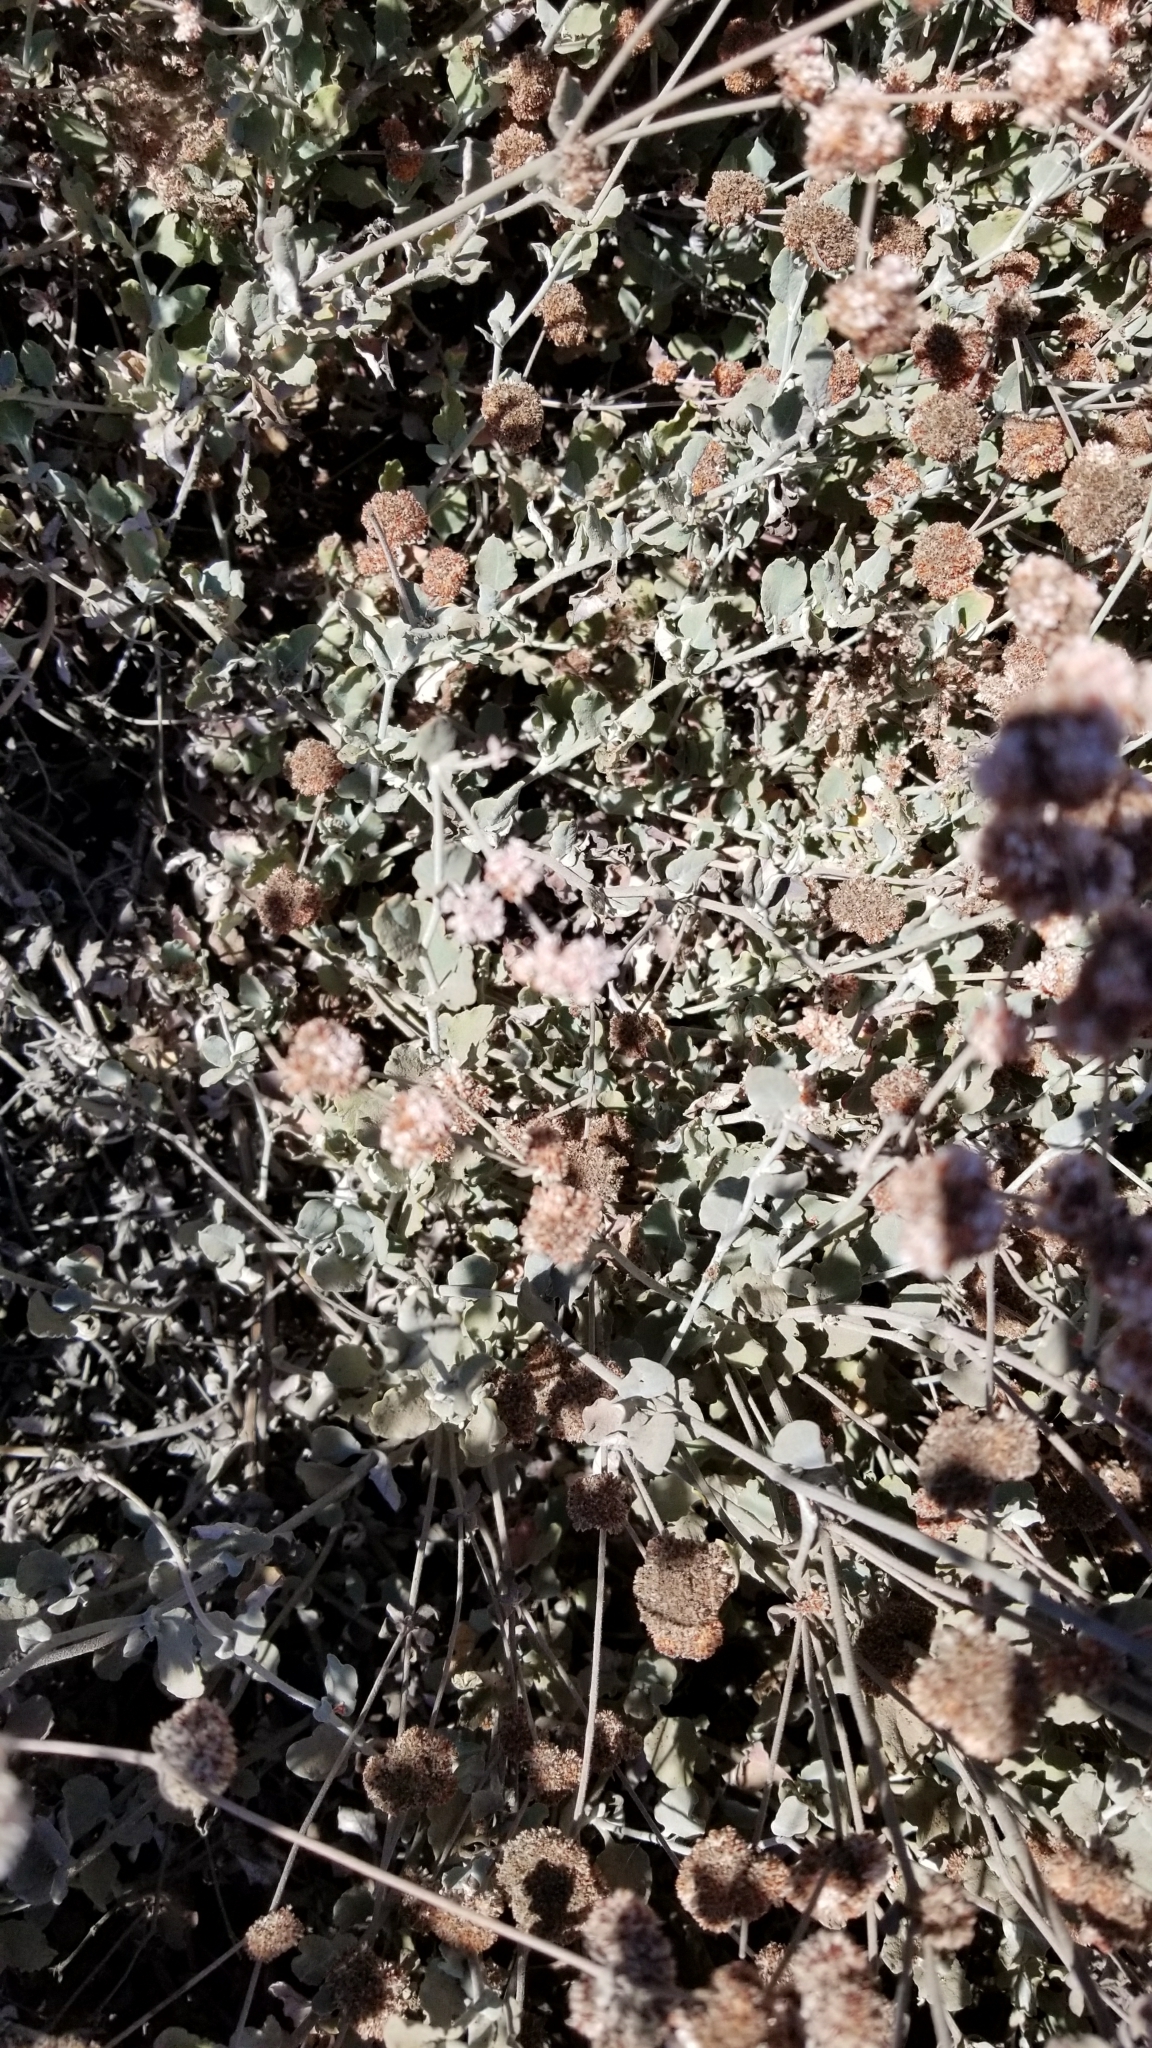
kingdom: Plantae
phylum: Tracheophyta
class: Magnoliopsida
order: Caryophyllales
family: Polygonaceae
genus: Eriogonum
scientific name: Eriogonum cinereum
